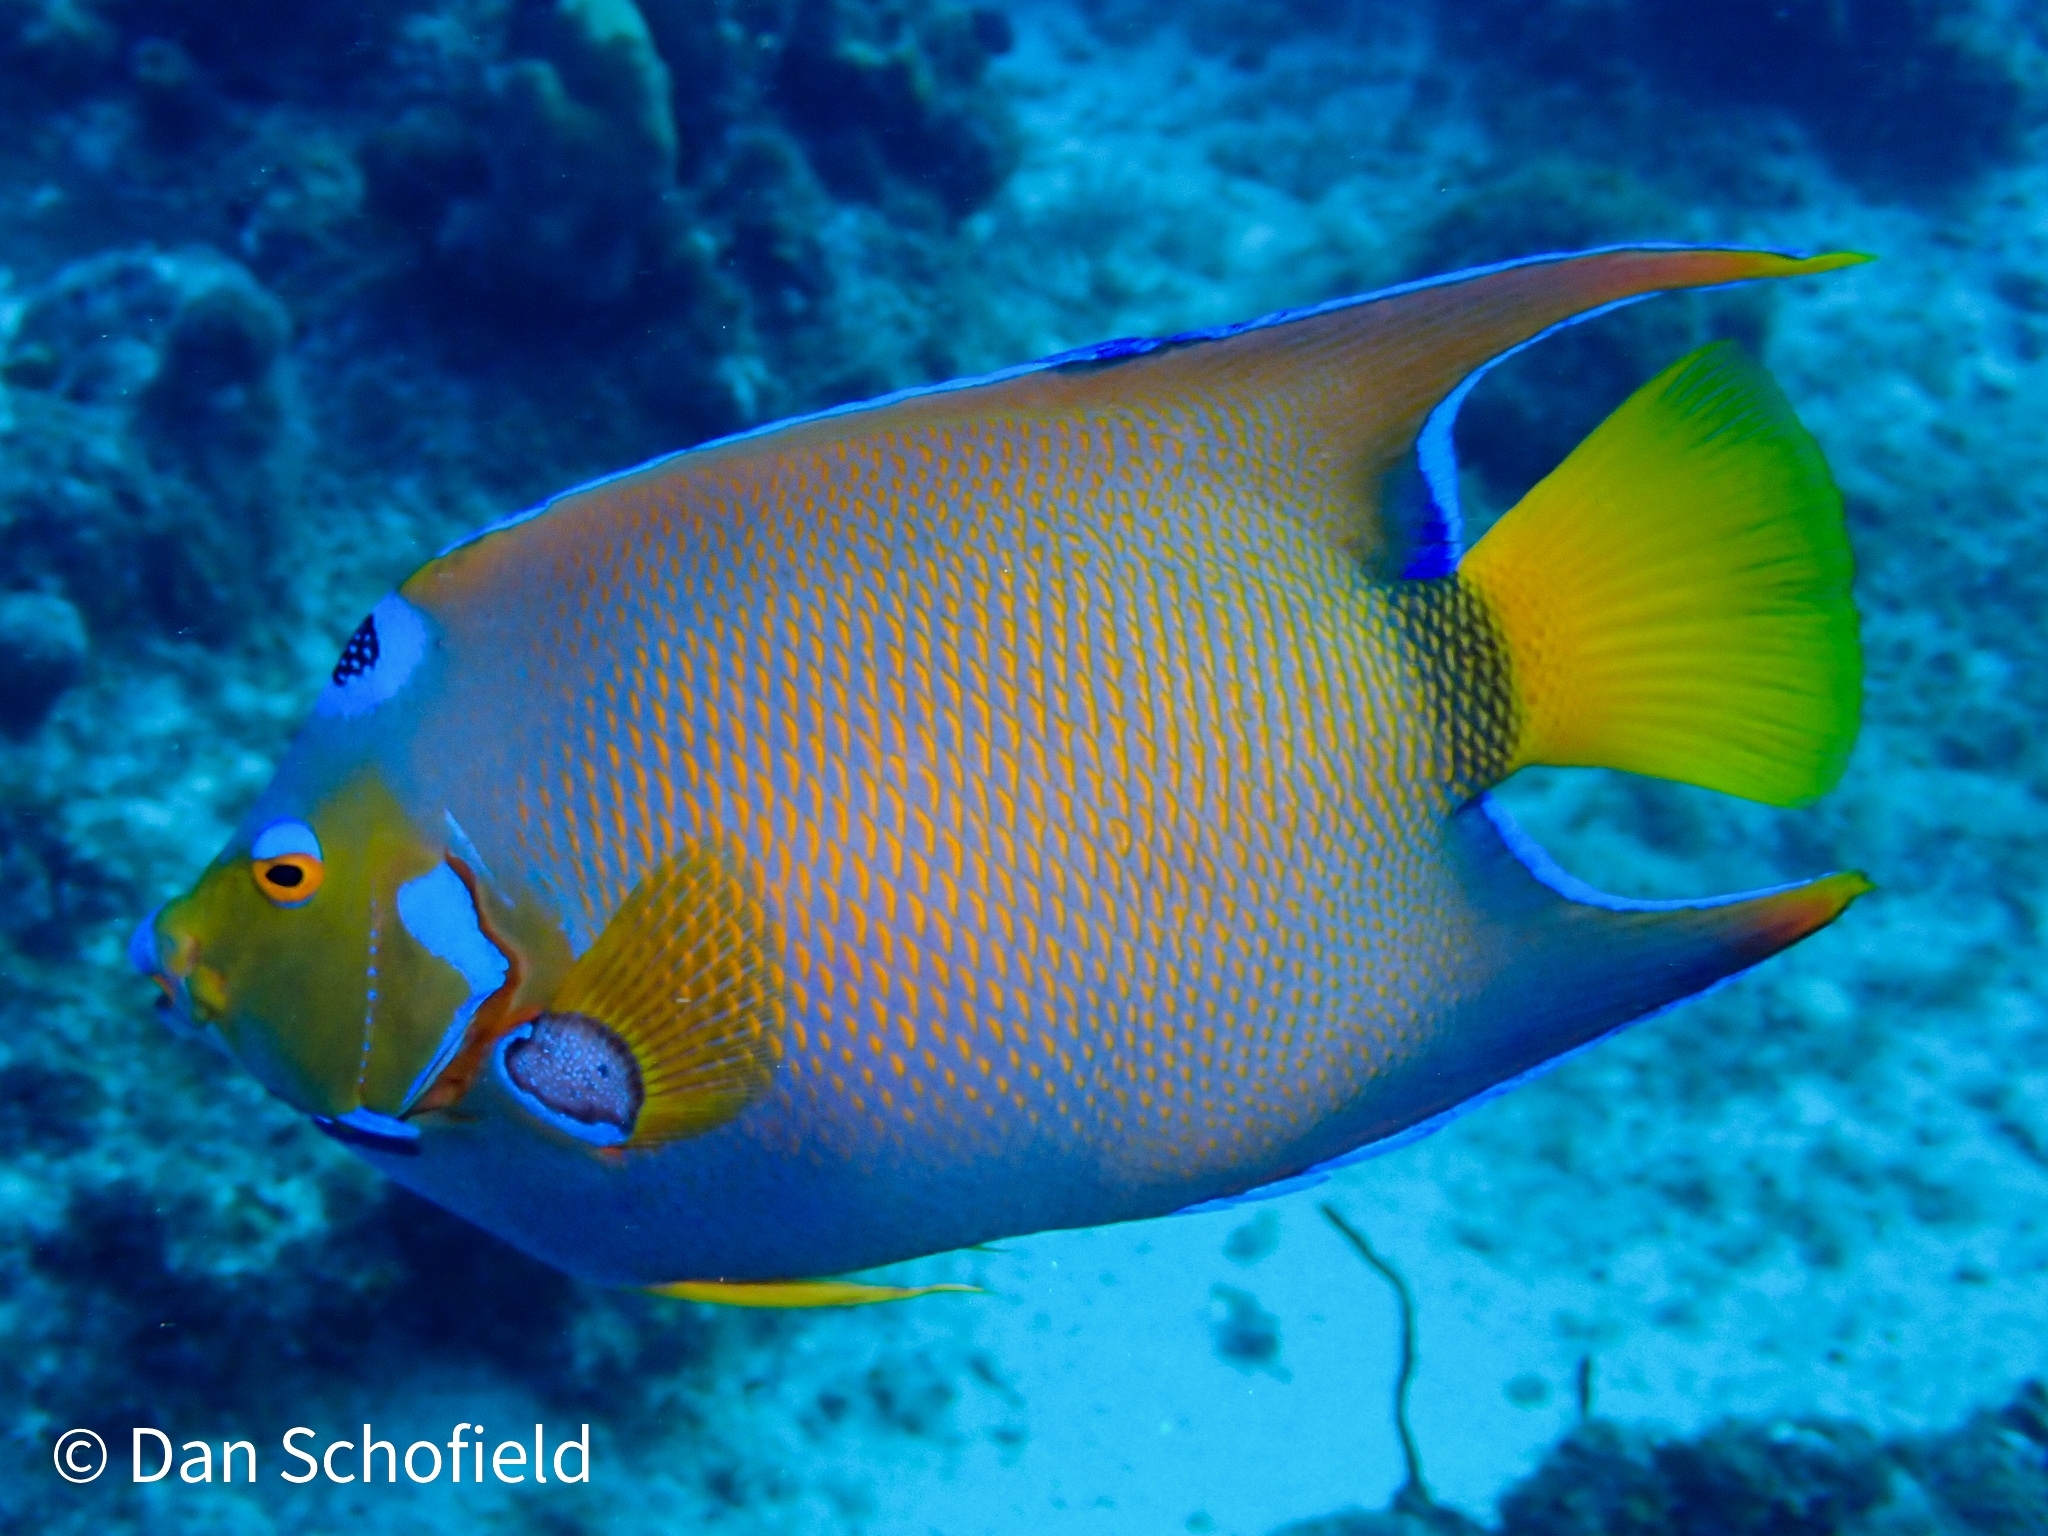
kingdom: Animalia
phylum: Chordata
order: Perciformes
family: Pomacanthidae
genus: Holacanthus
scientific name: Holacanthus ciliaris
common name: Queen angelfish
